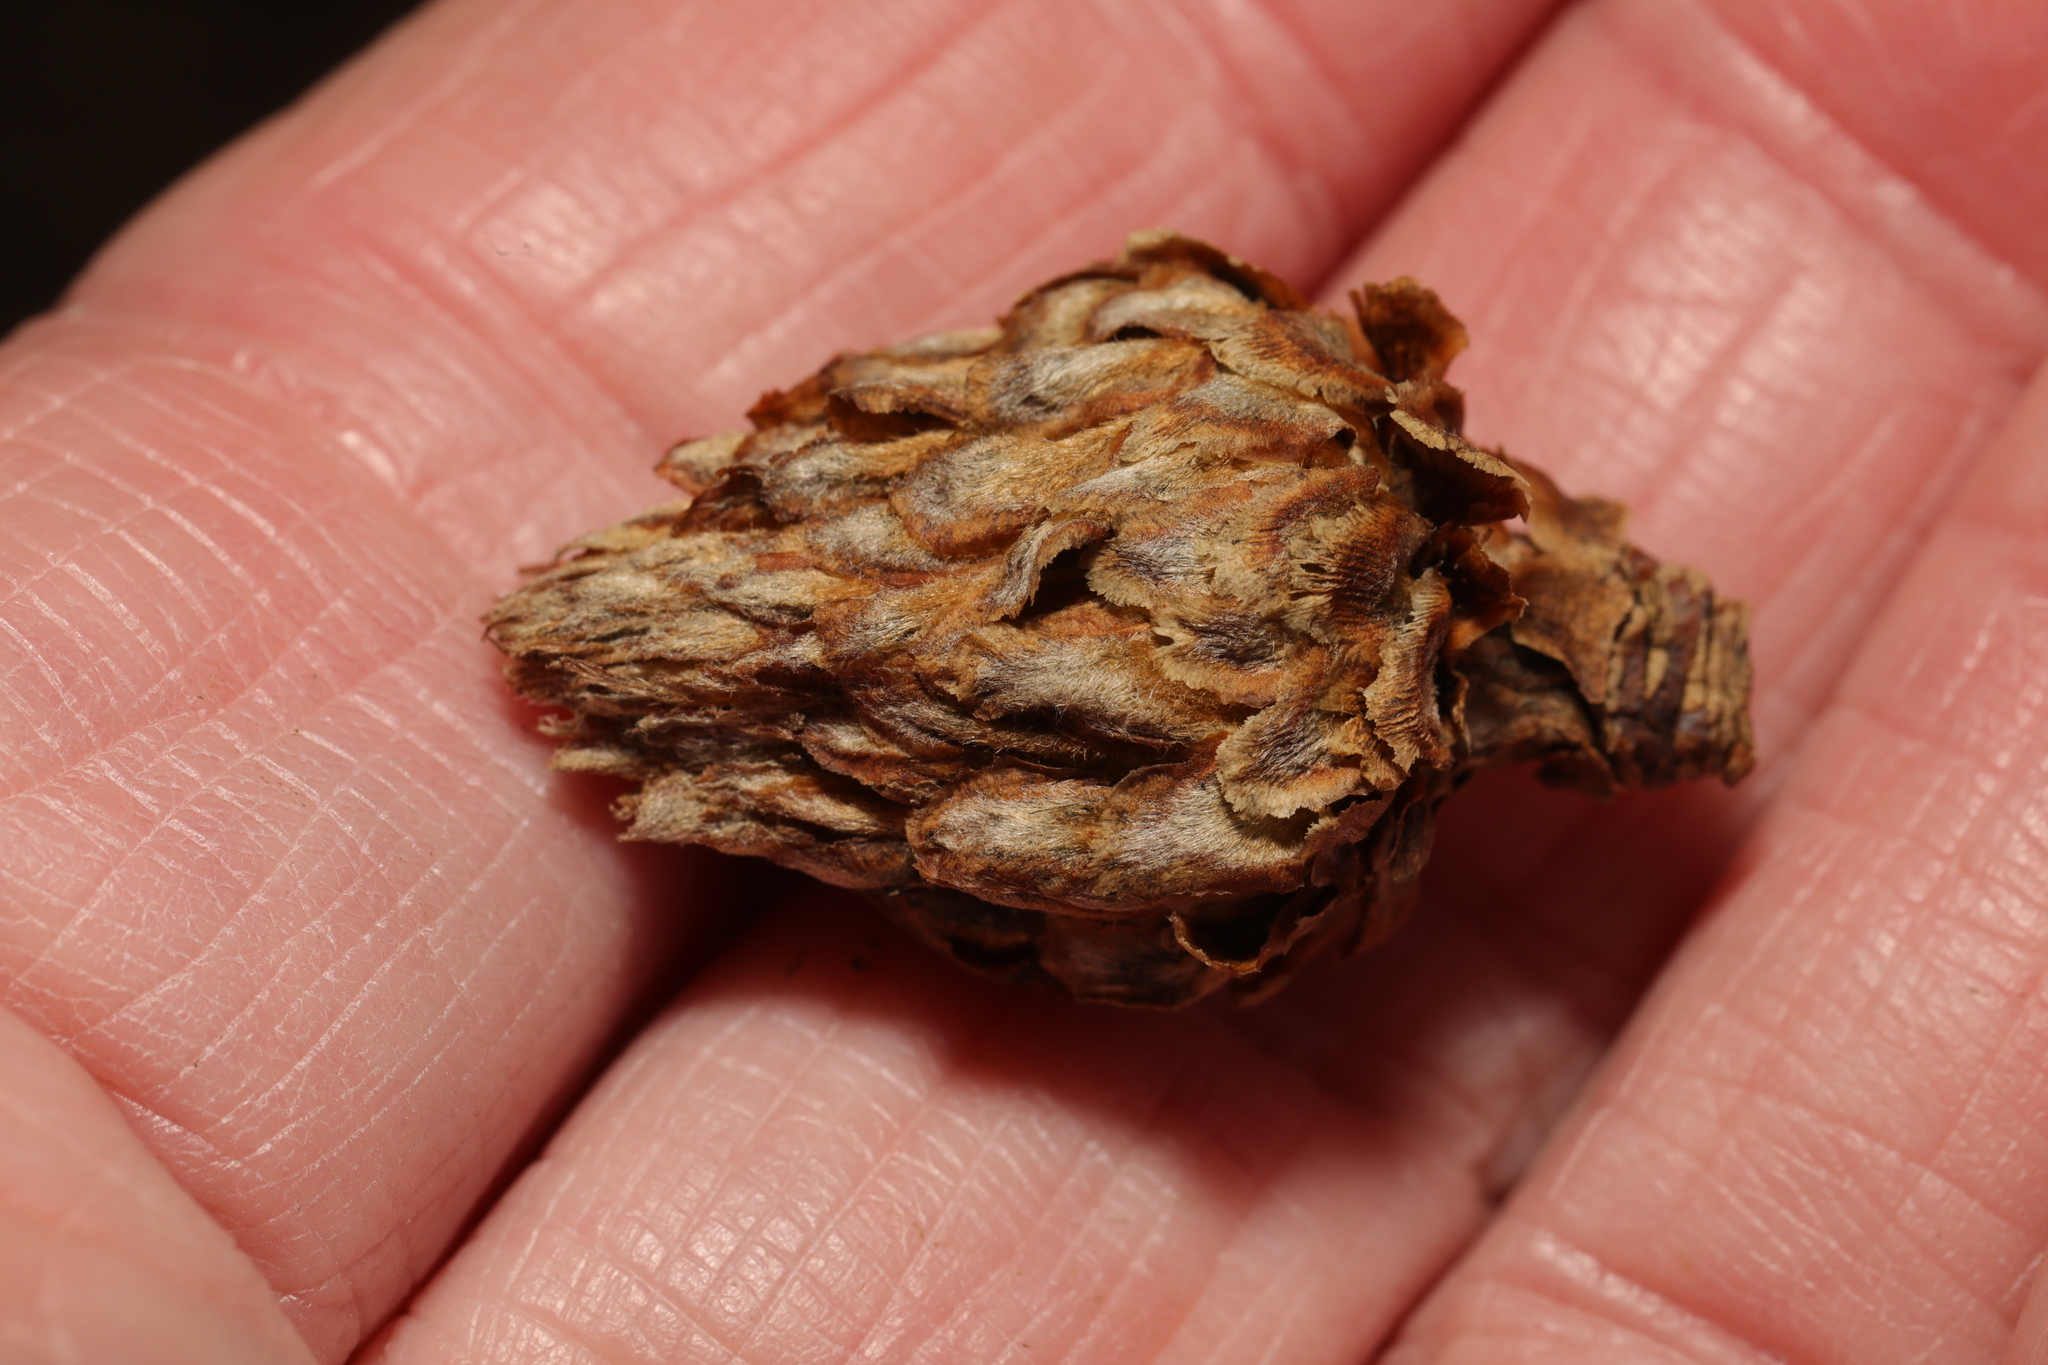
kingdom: Animalia
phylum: Arthropoda
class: Insecta
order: Hymenoptera
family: Cynipidae
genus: Andricus
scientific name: Andricus foecundatrix
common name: Artichoke gall
